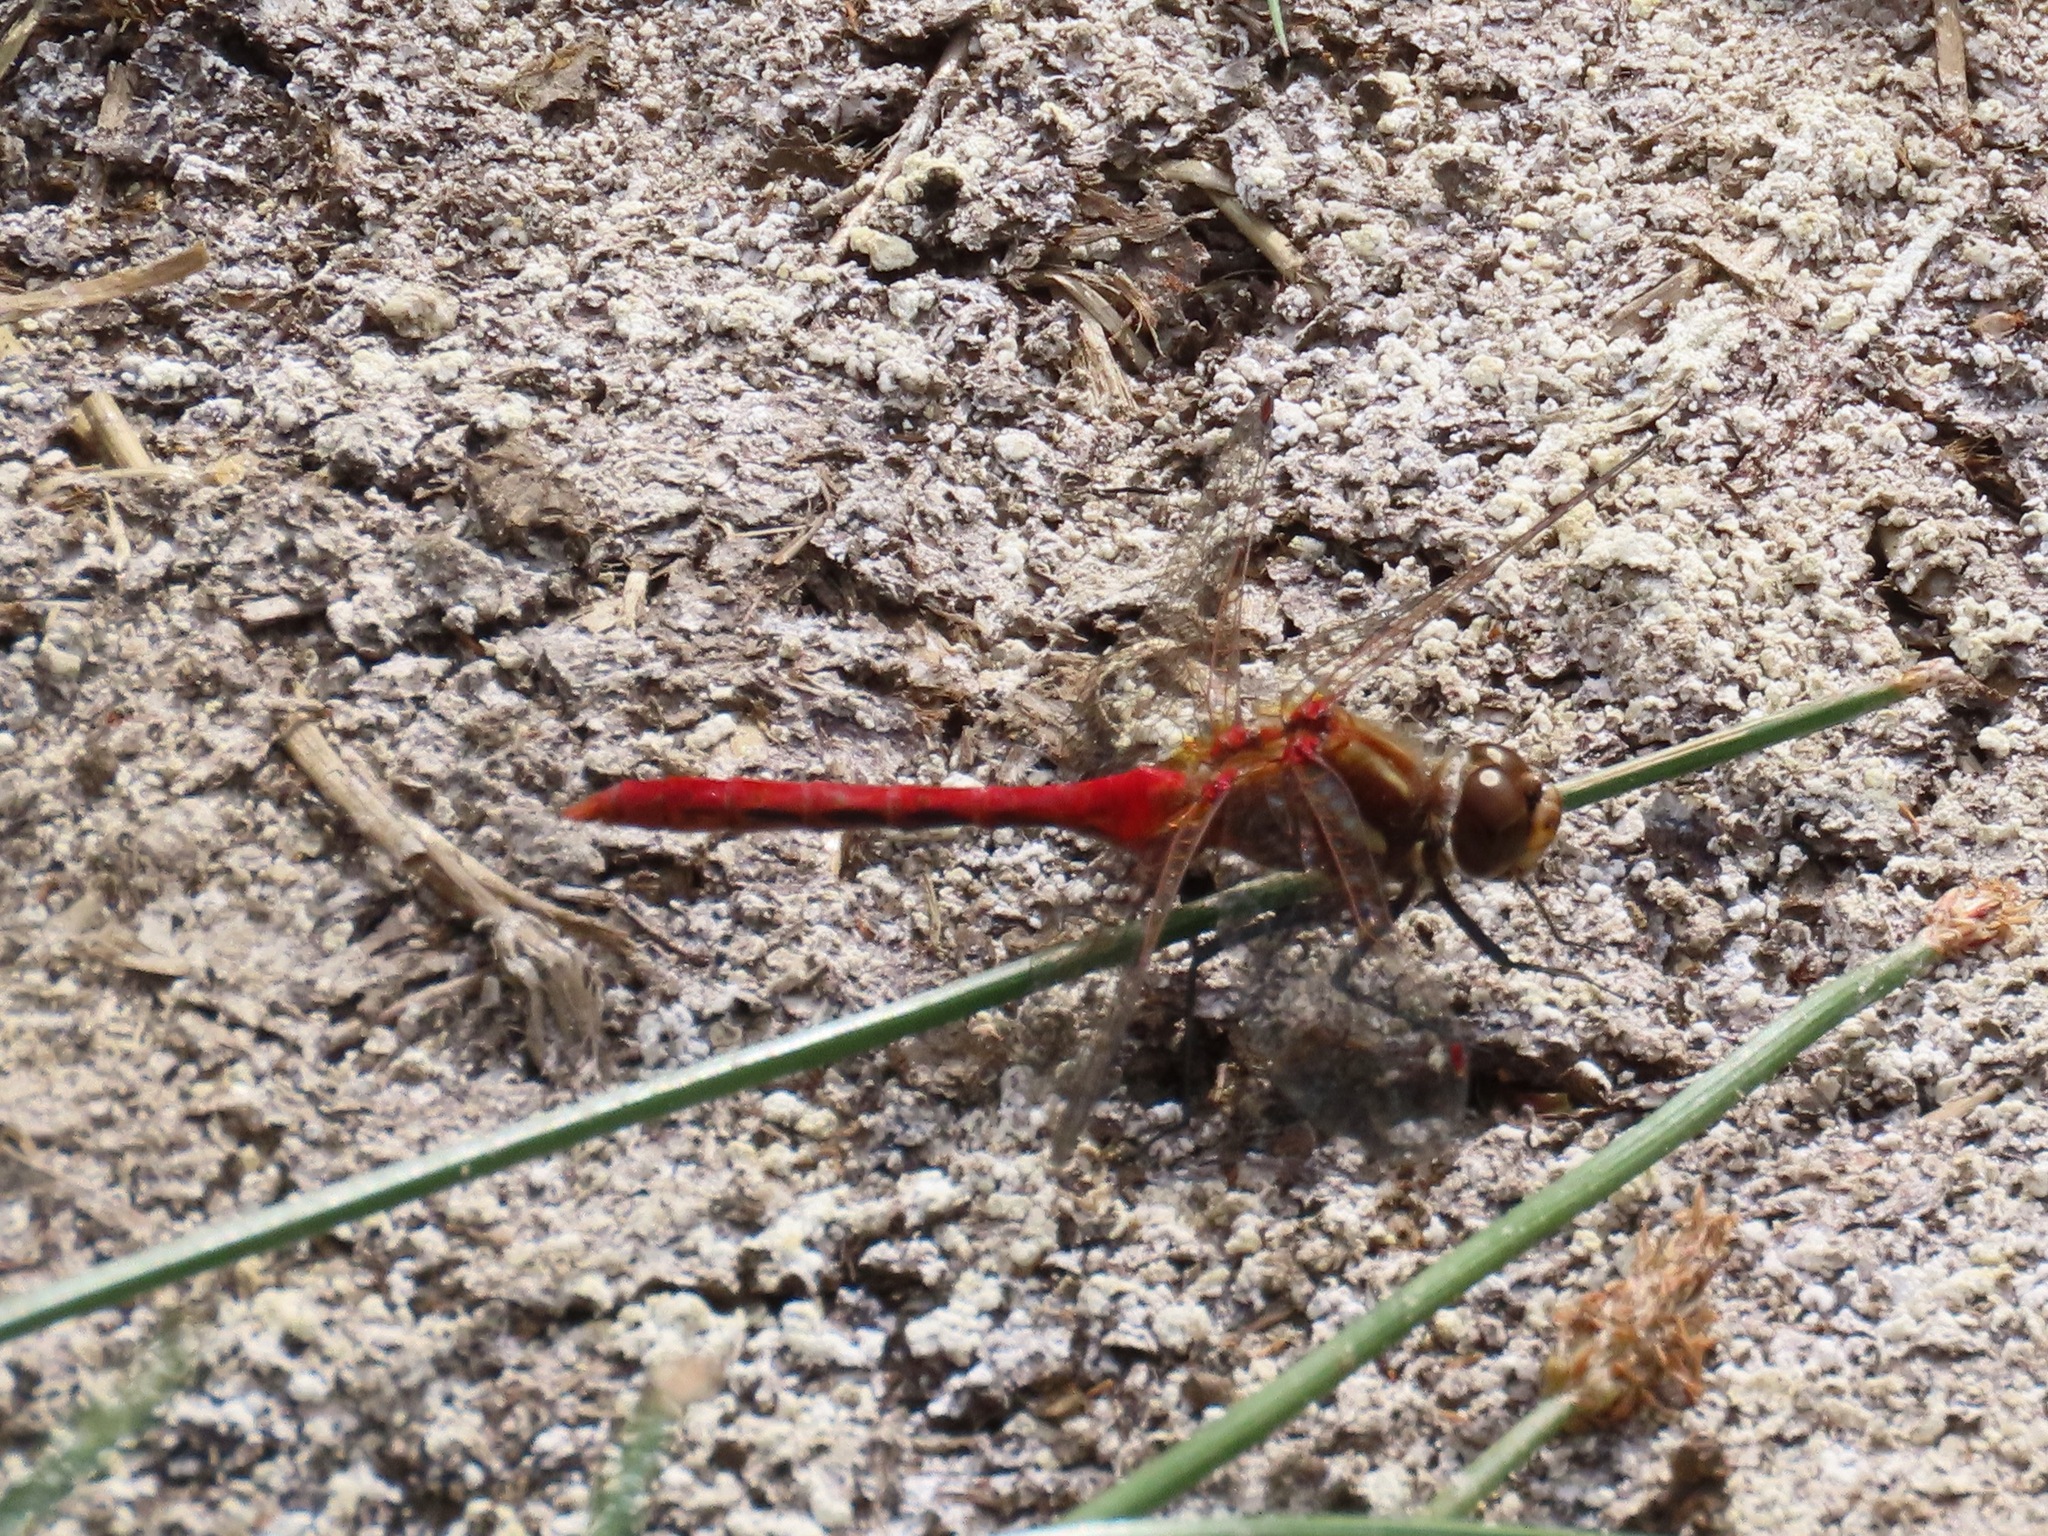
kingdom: Animalia
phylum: Arthropoda
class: Insecta
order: Odonata
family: Libellulidae
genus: Sympetrum
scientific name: Sympetrum pallipes
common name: Striped meadowhawk
